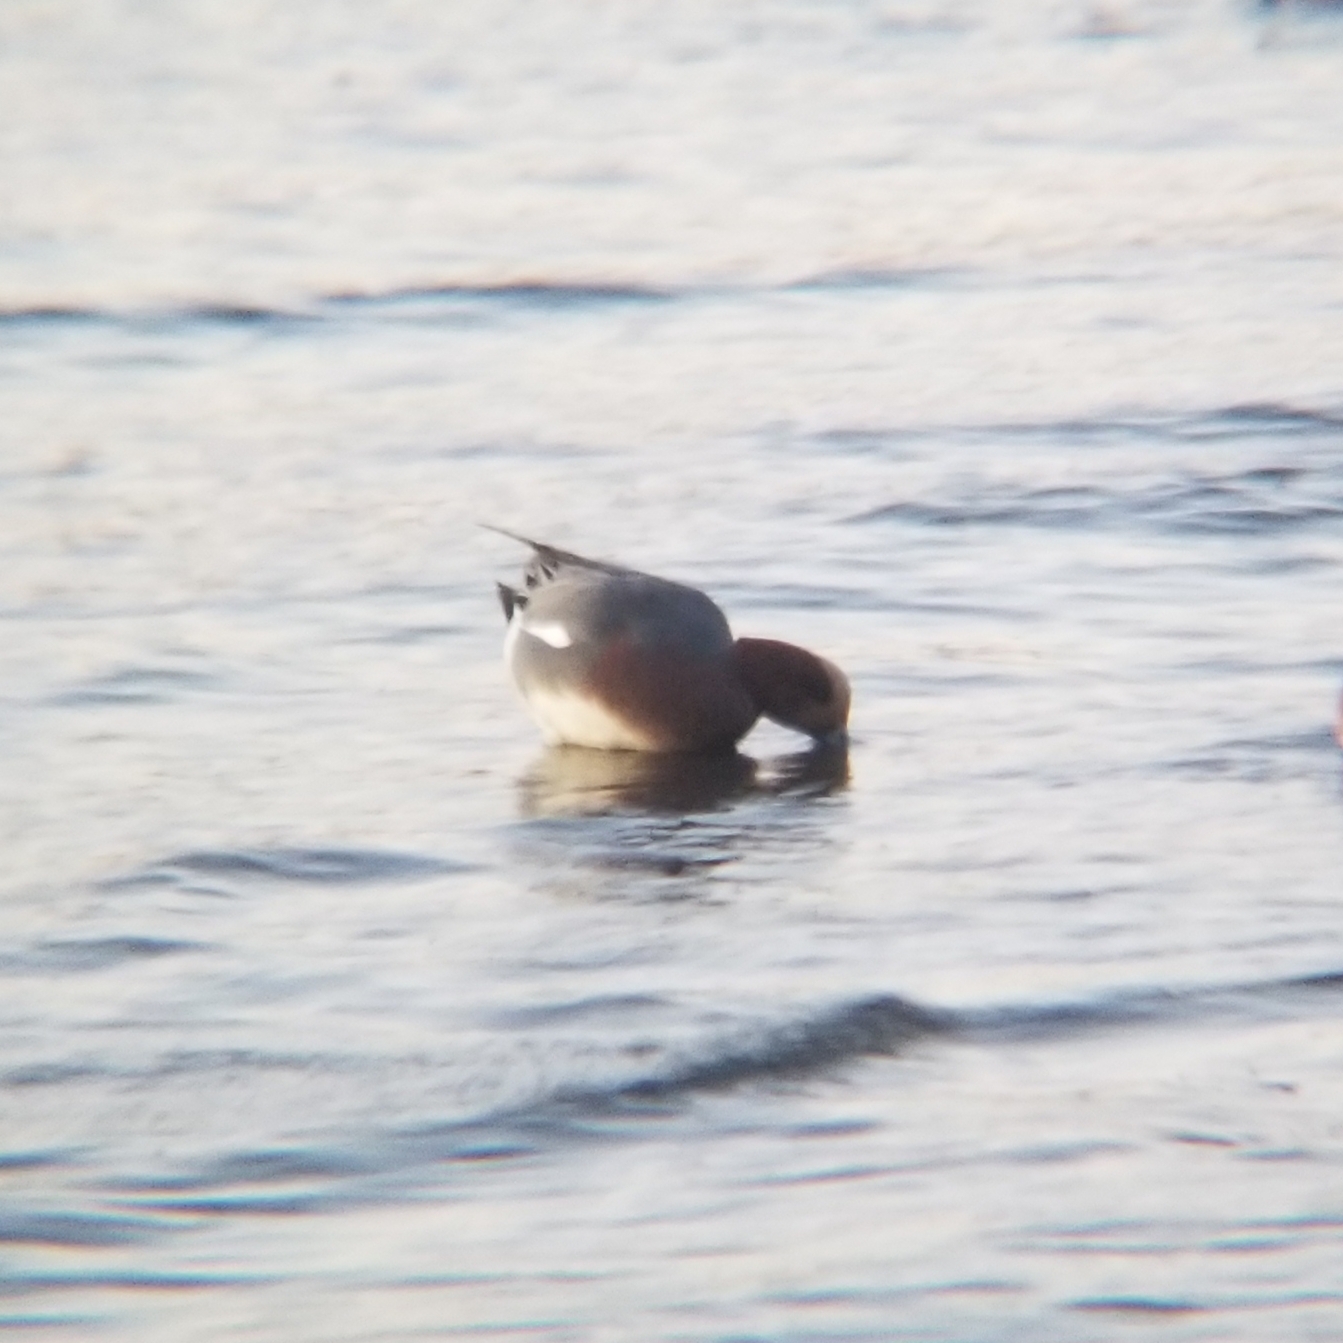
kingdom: Animalia
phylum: Chordata
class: Aves
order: Anseriformes
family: Anatidae
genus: Mareca
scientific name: Mareca penelope
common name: Eurasian wigeon
